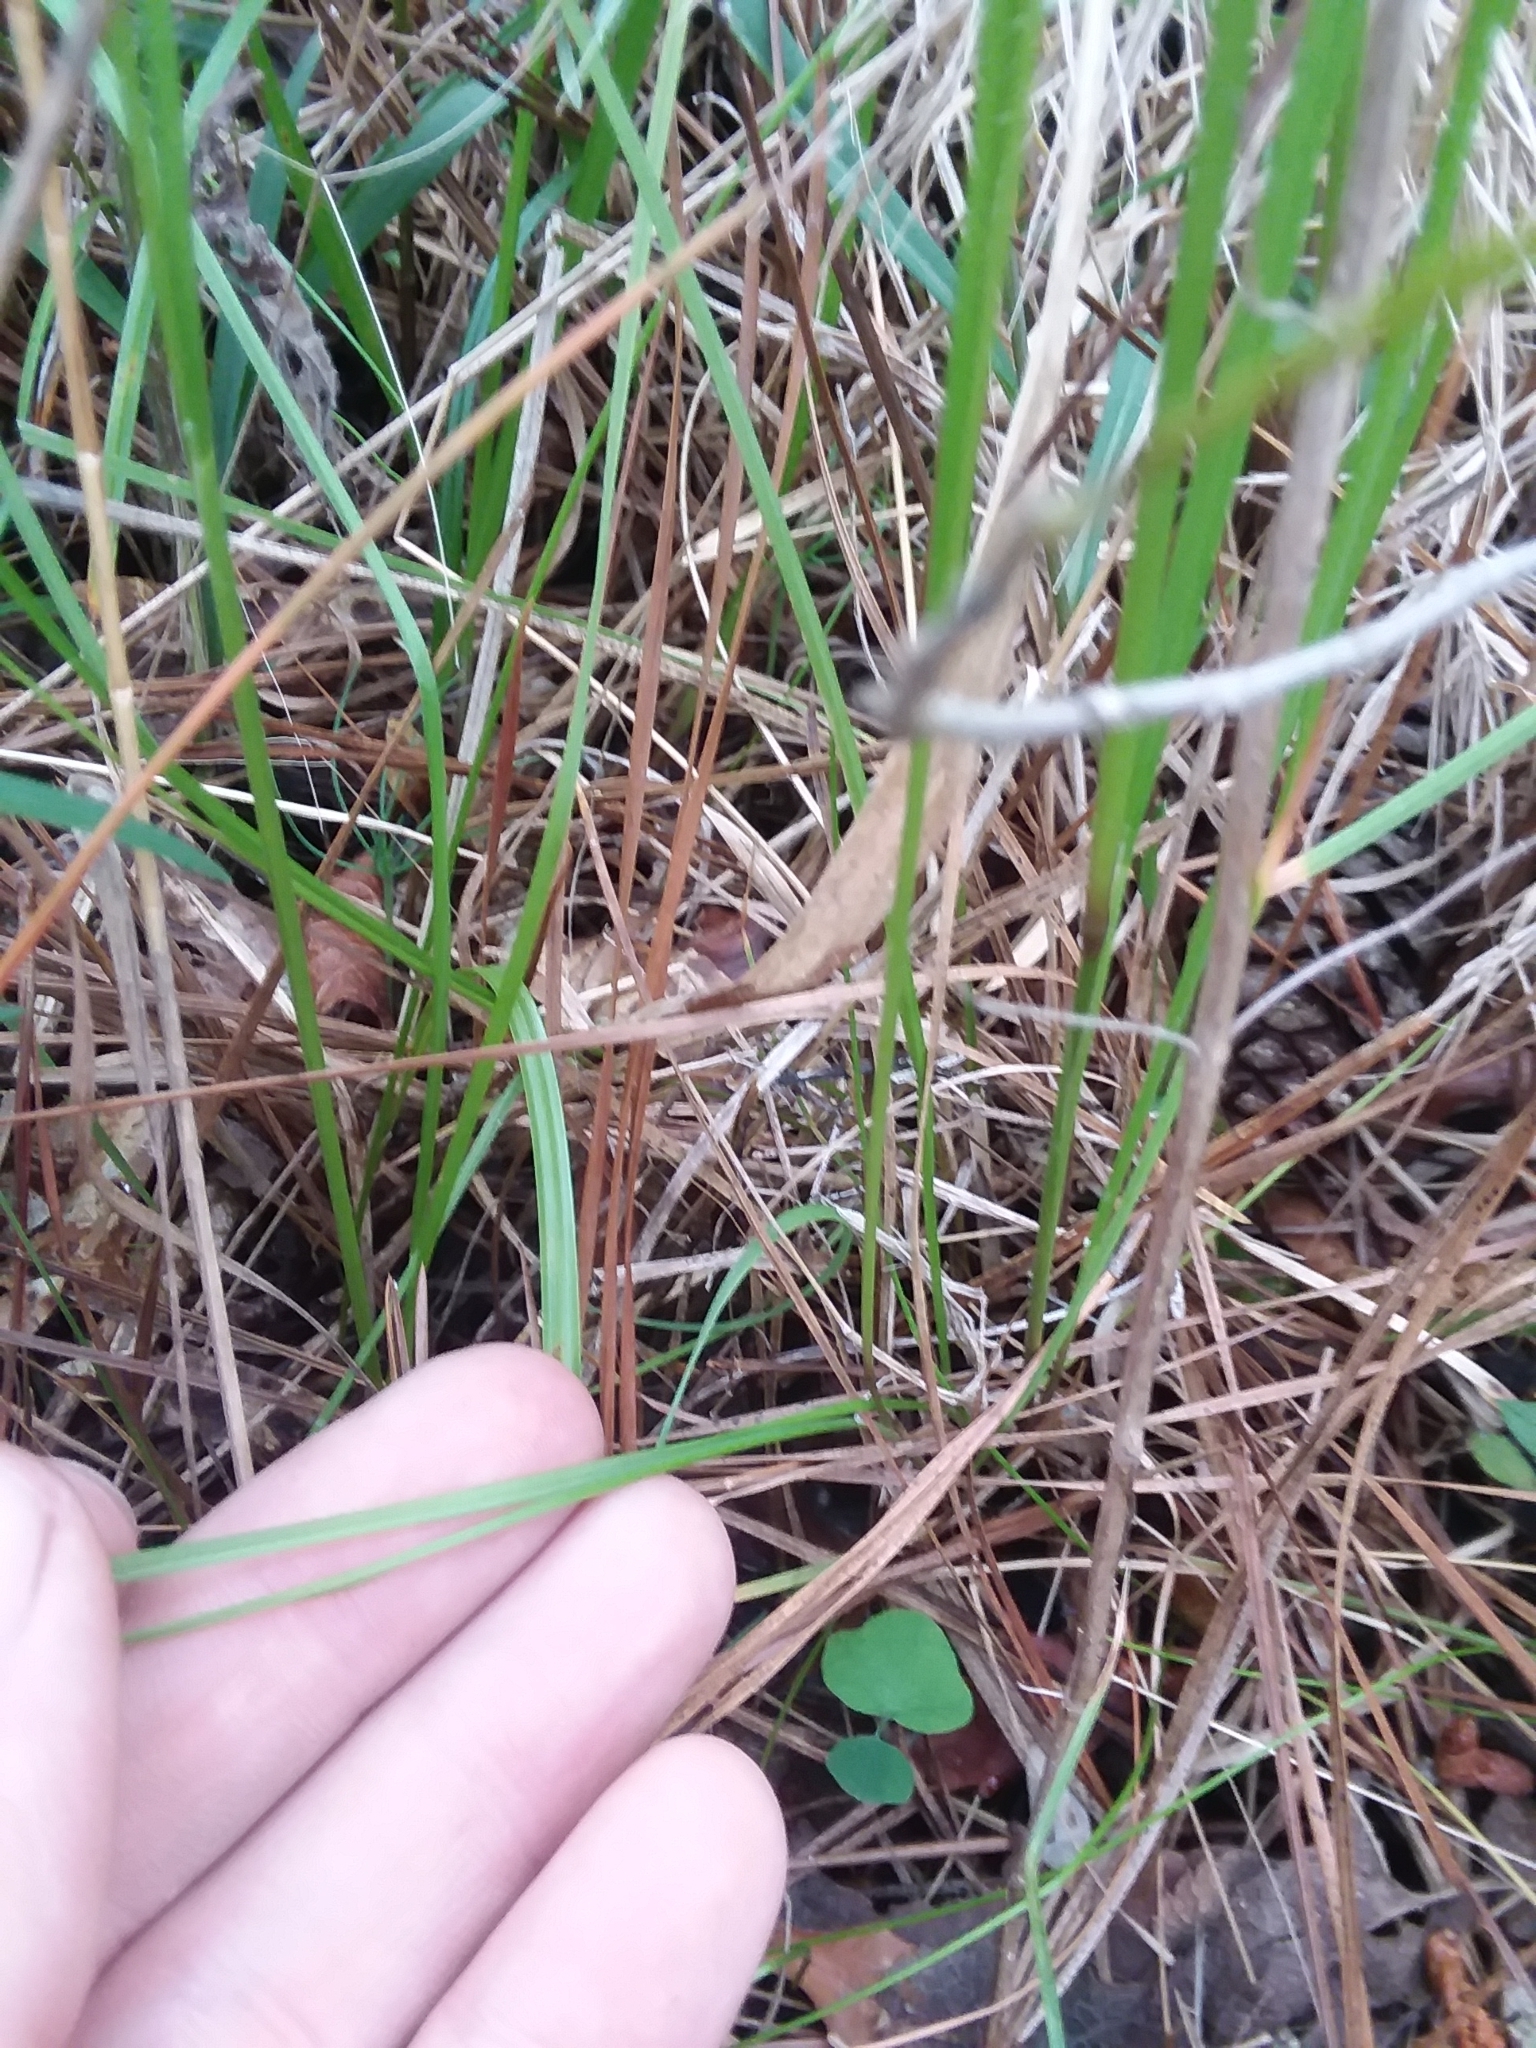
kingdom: Plantae
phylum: Tracheophyta
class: Liliopsida
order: Poales
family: Poaceae
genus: Agrostis
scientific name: Agrostis hyemalis
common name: Small bent
